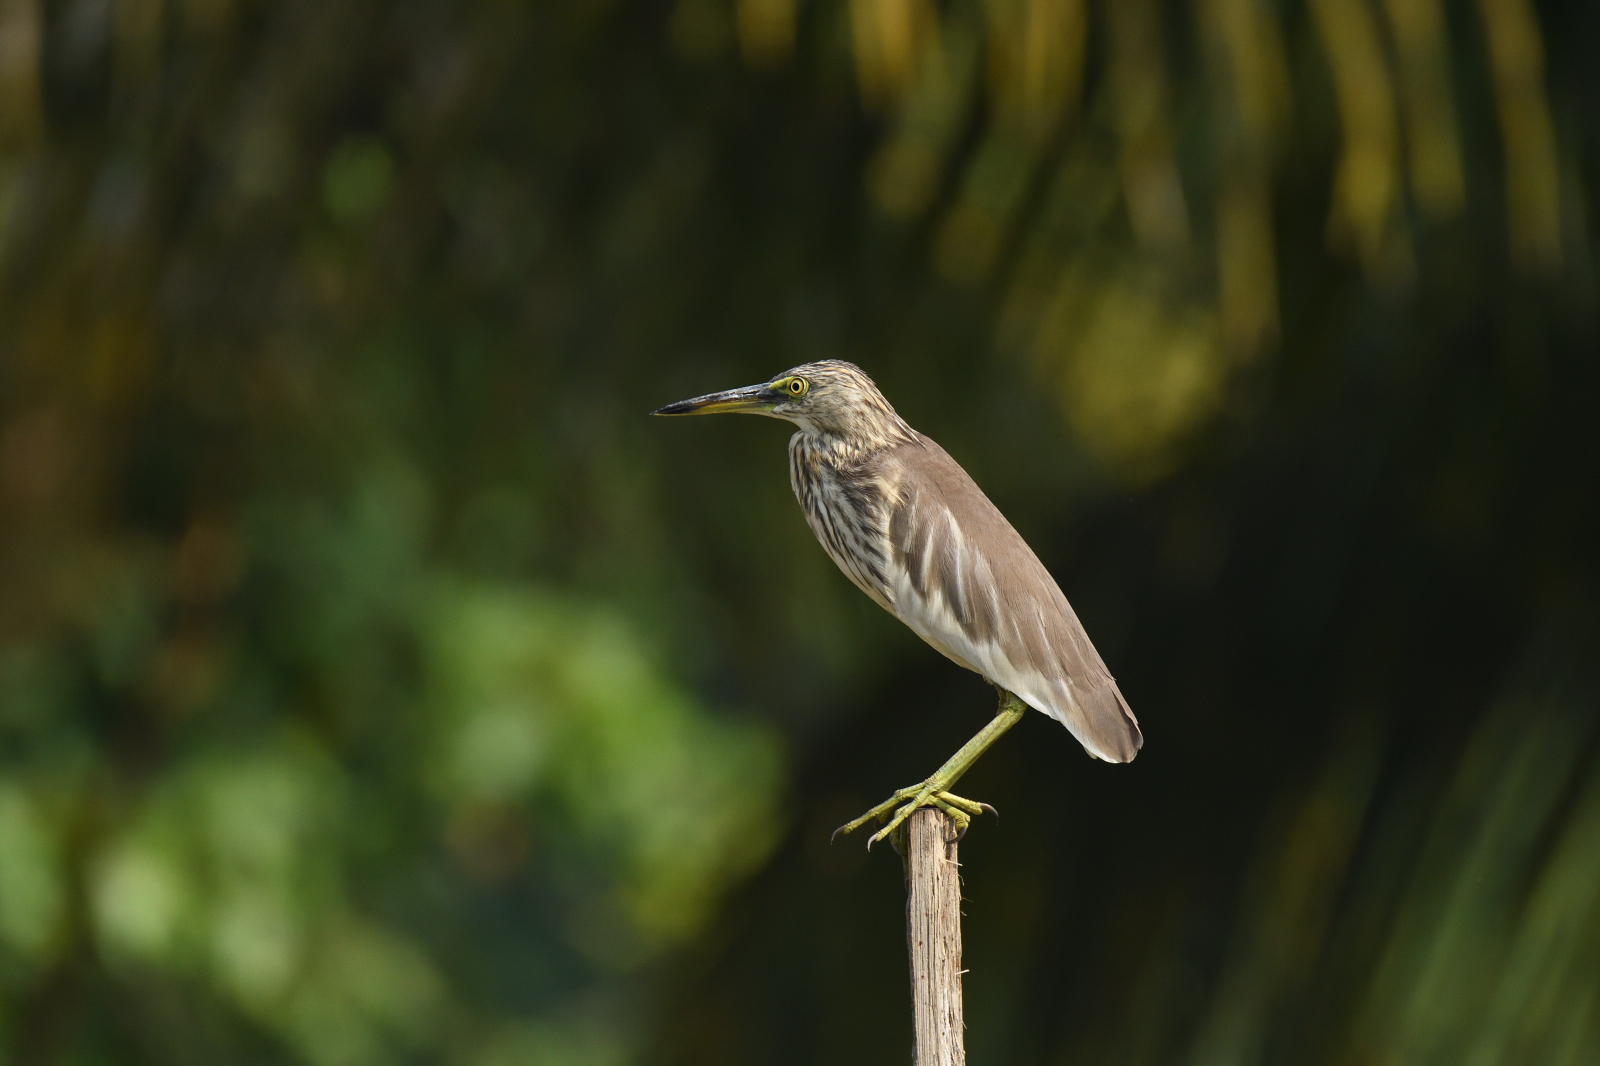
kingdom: Animalia
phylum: Chordata
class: Aves
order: Pelecaniformes
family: Ardeidae
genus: Ardeola
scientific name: Ardeola grayii
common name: Indian pond heron
